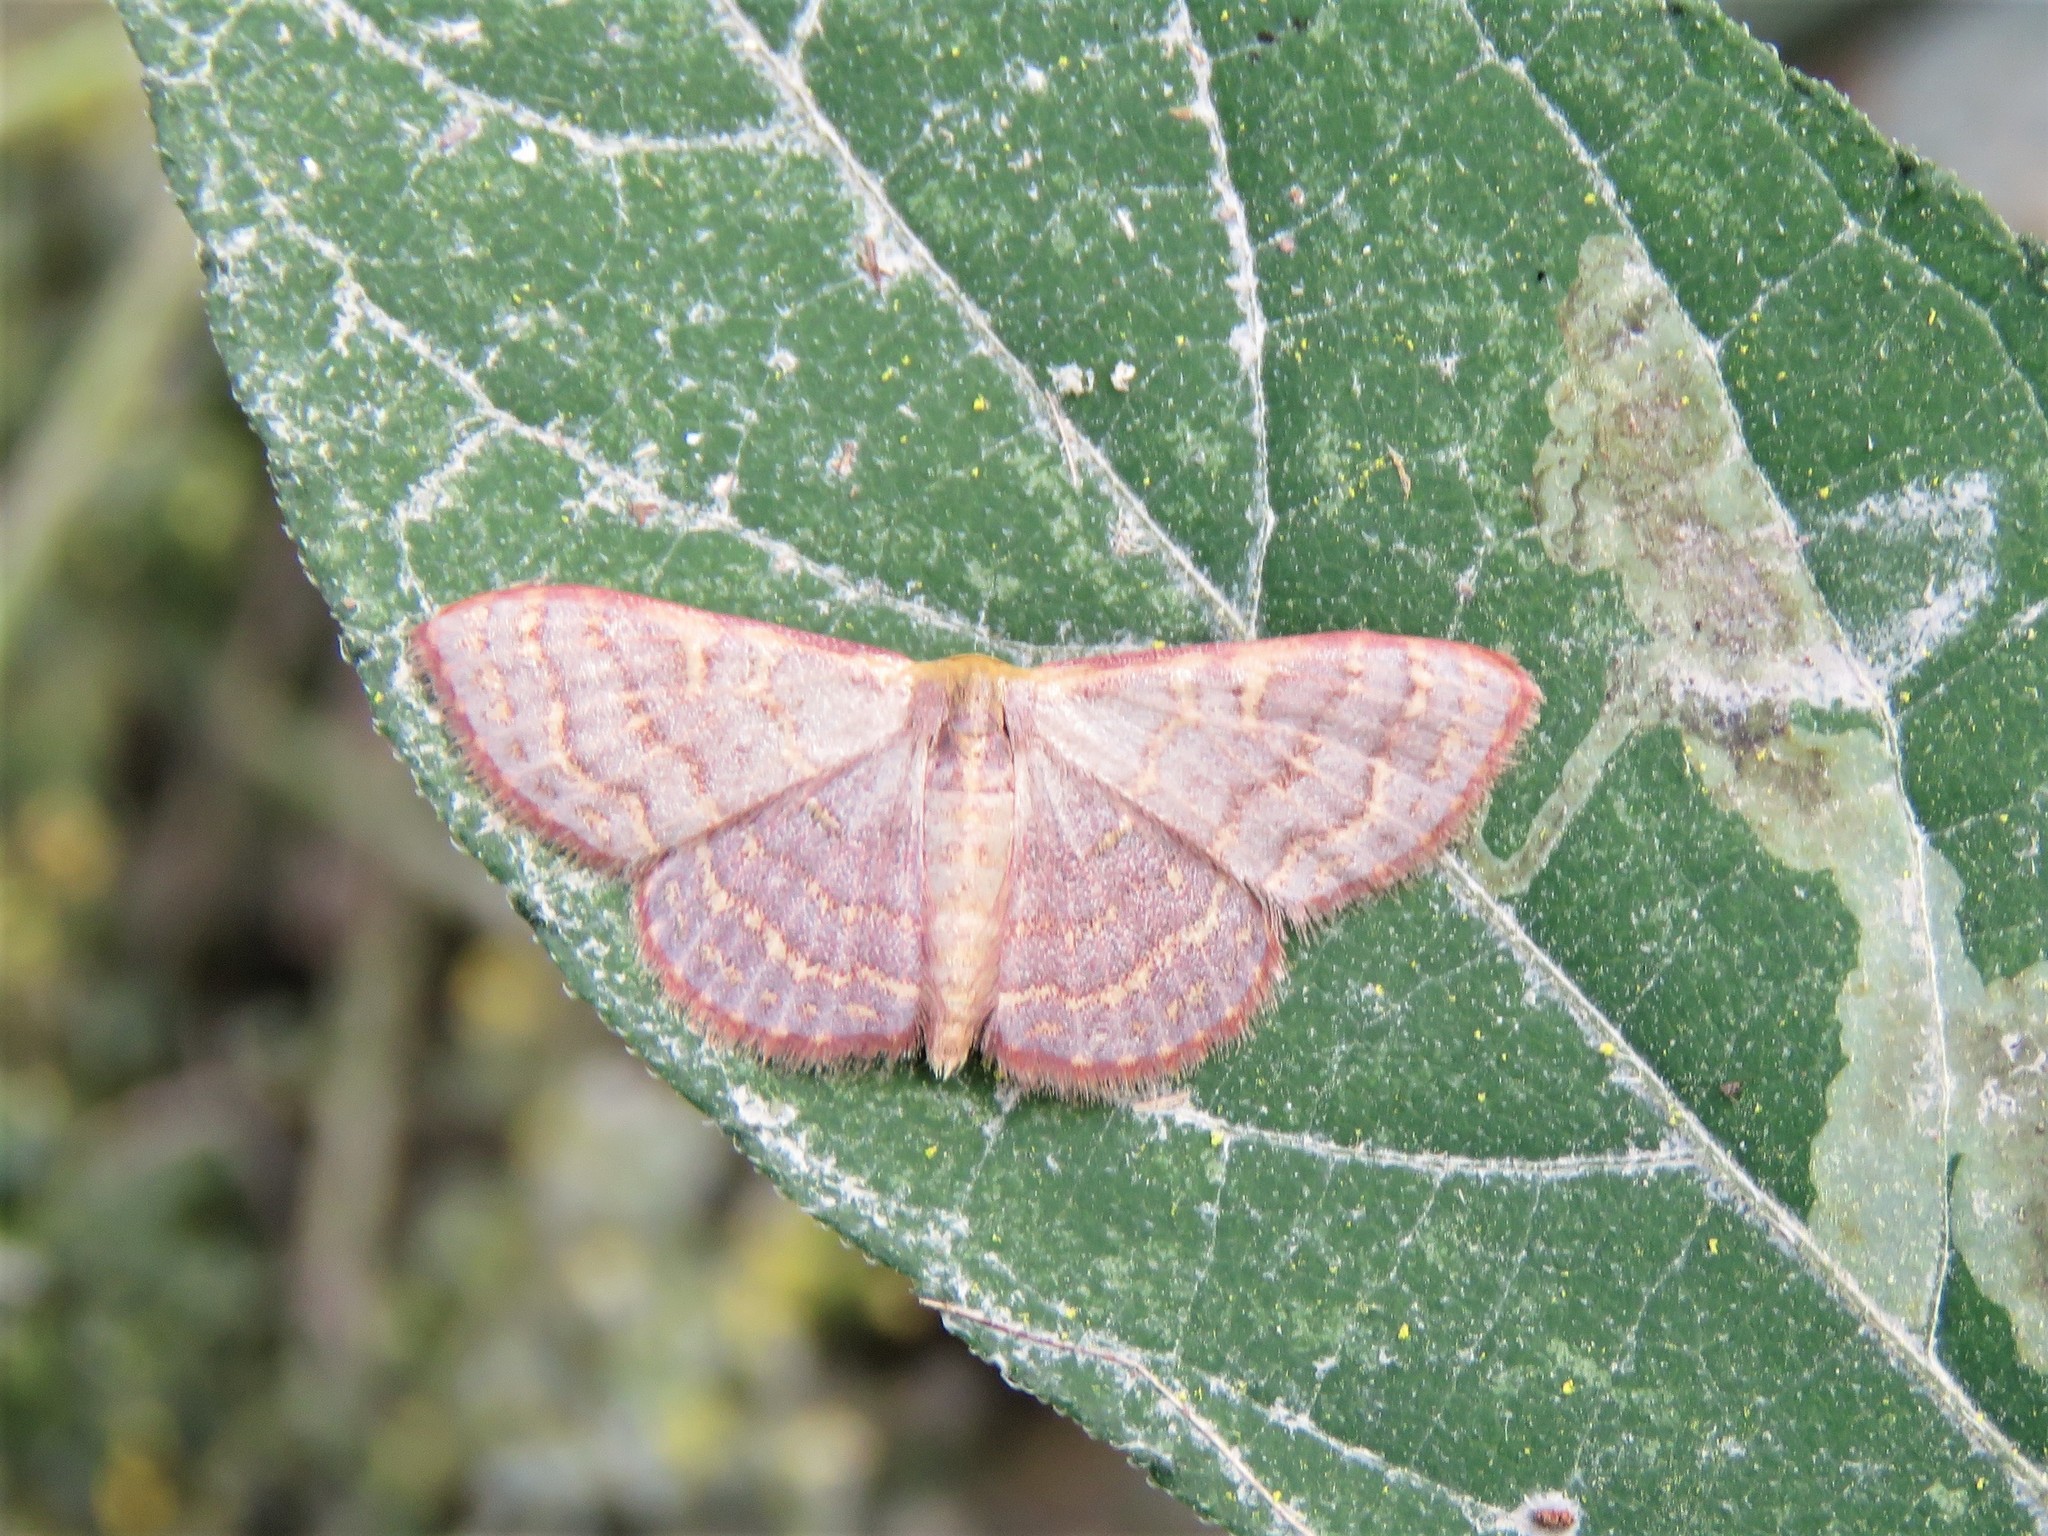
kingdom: Animalia
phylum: Arthropoda
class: Insecta
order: Lepidoptera
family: Geometridae
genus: Leptostales
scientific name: Leptostales pannaria
